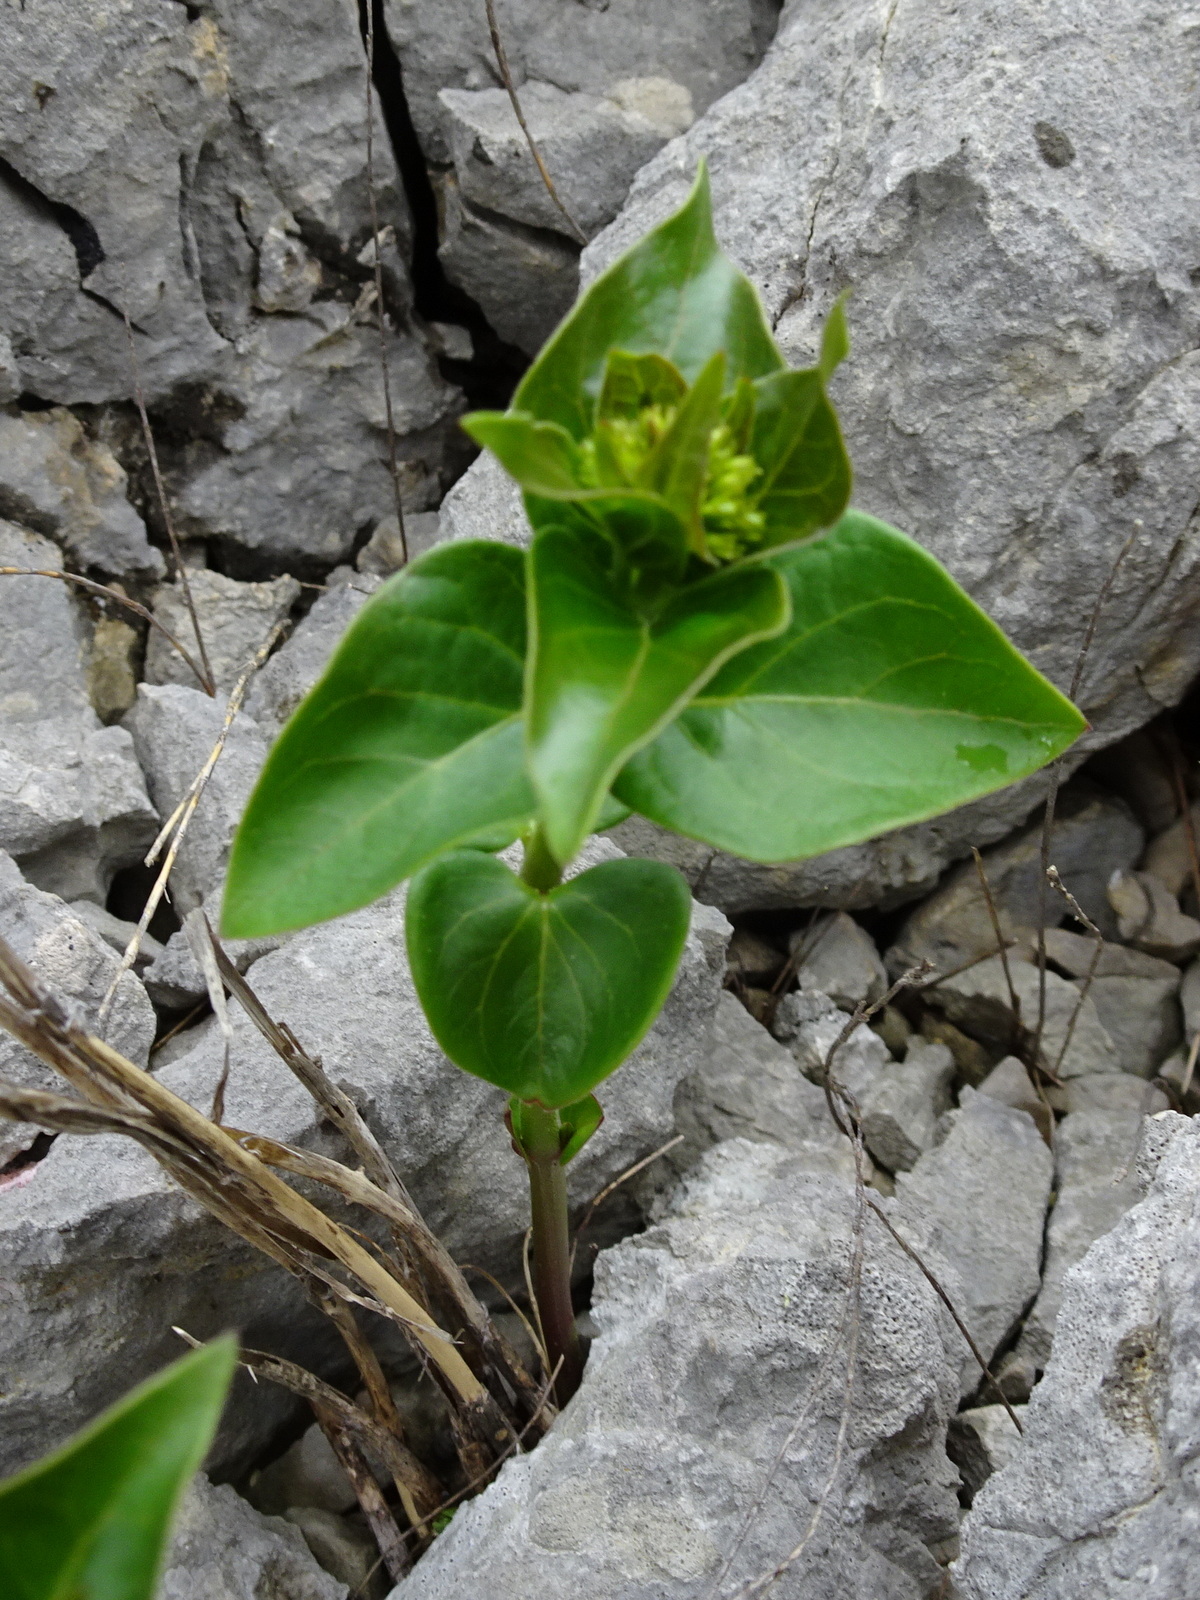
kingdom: Plantae
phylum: Tracheophyta
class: Magnoliopsida
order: Gentianales
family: Apocynaceae
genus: Vincetoxicum
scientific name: Vincetoxicum hirundinaria
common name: White swallowwort
